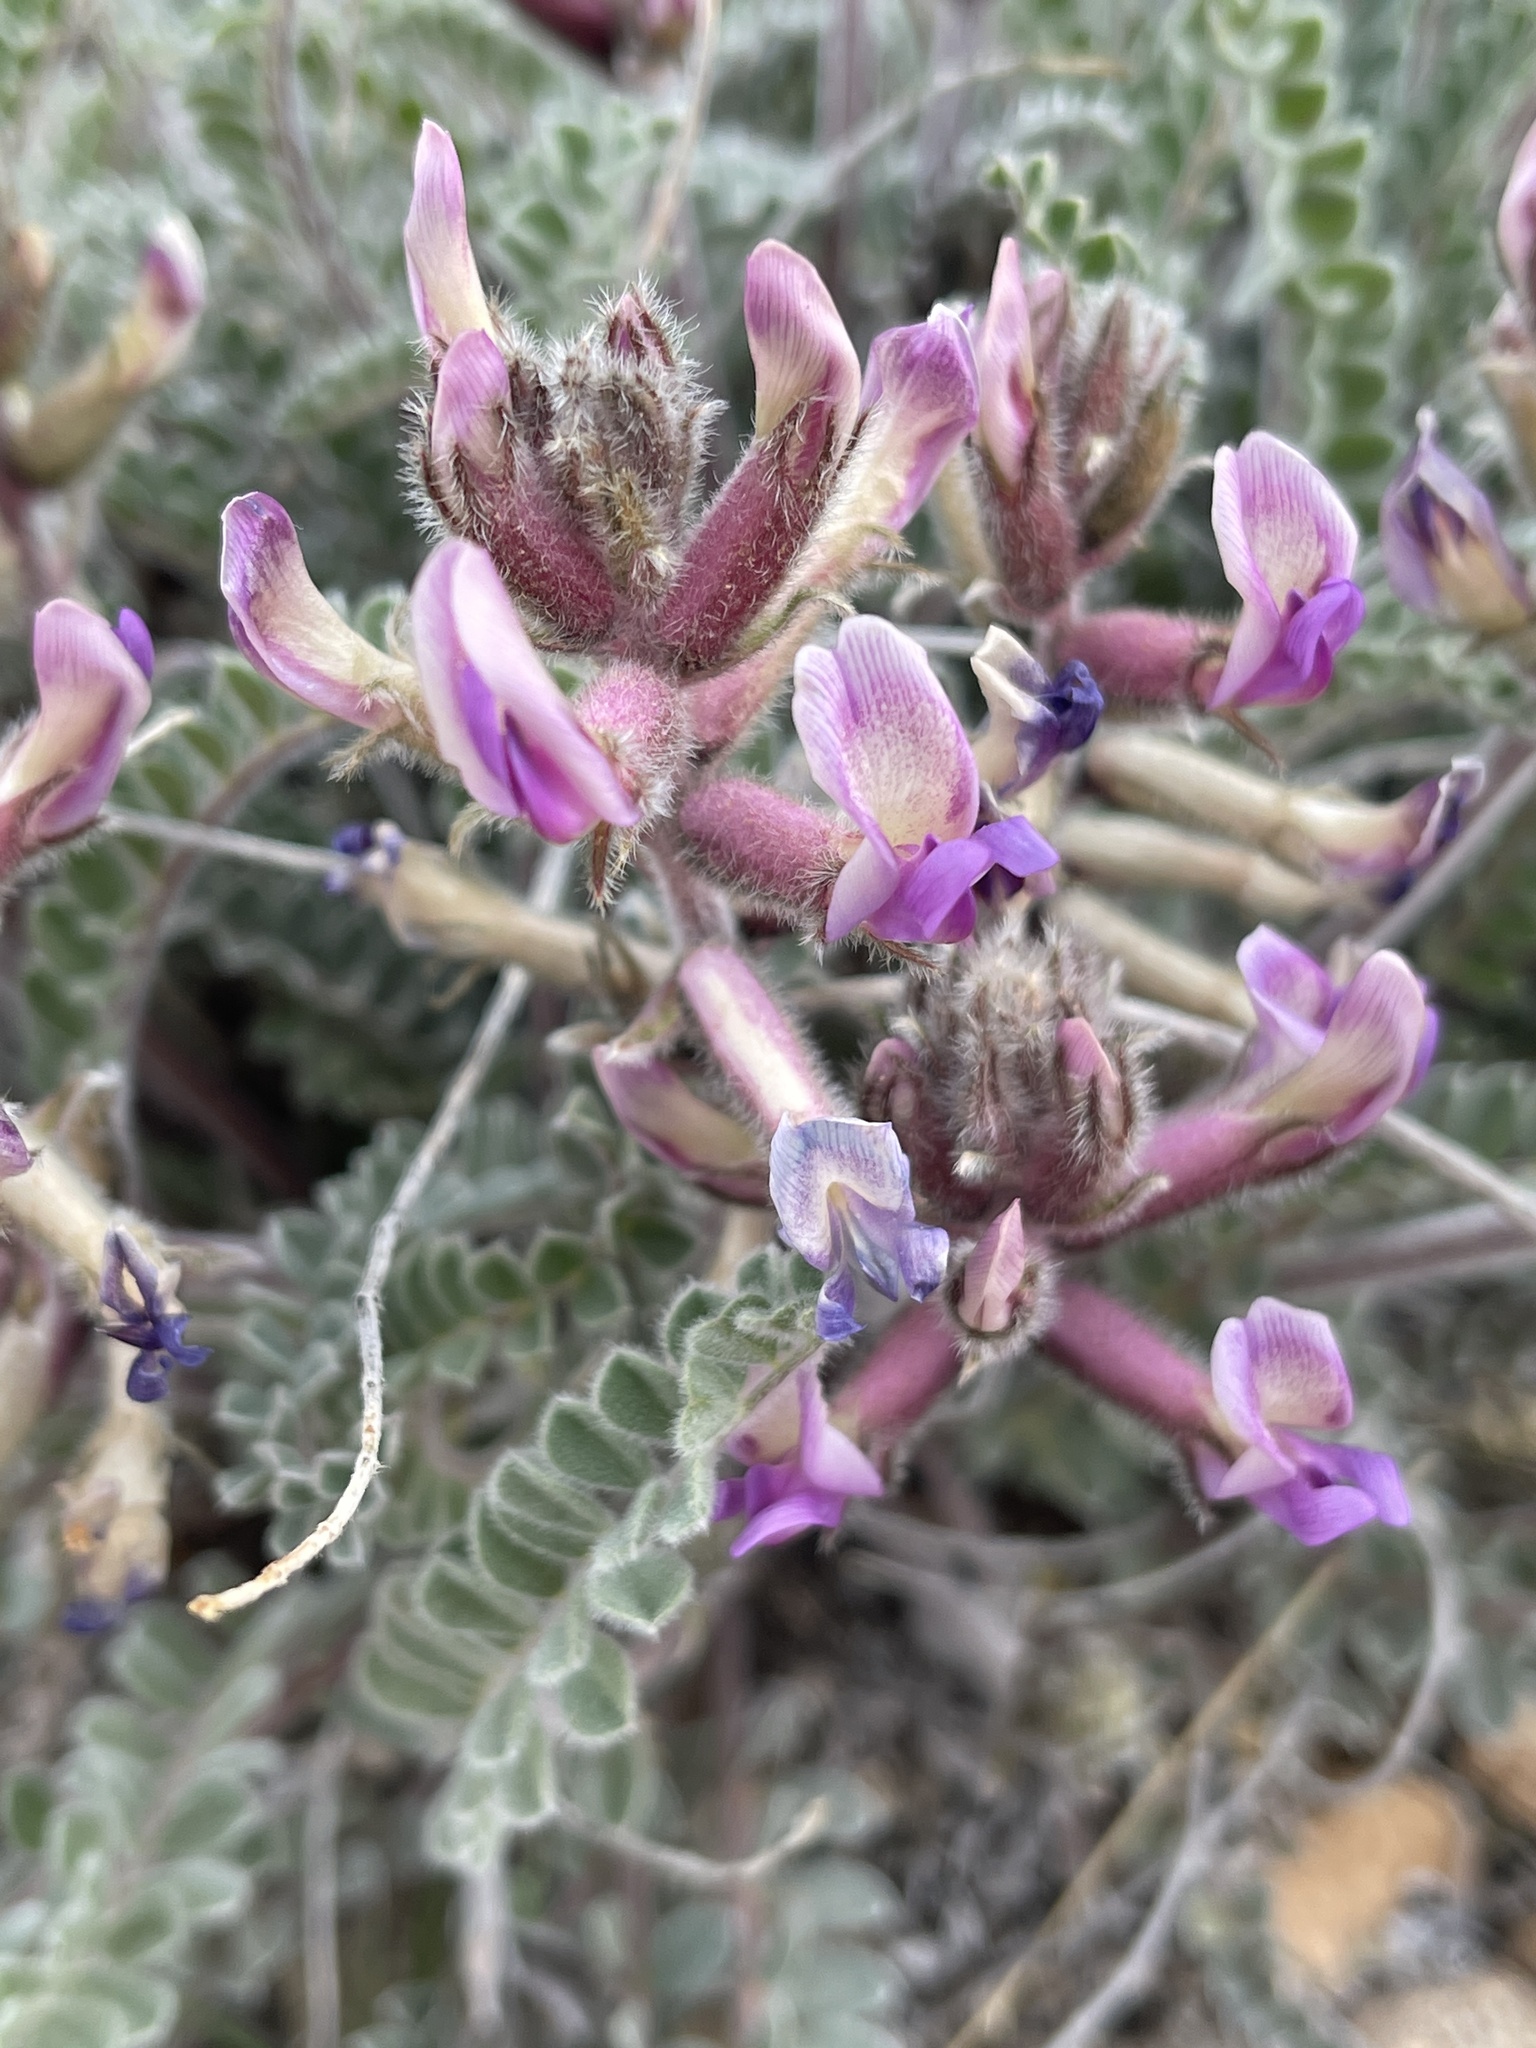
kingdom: Plantae
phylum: Tracheophyta
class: Magnoliopsida
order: Fabales
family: Fabaceae
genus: Astragalus
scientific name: Astragalus mollissimus
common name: Woolly locoweed
